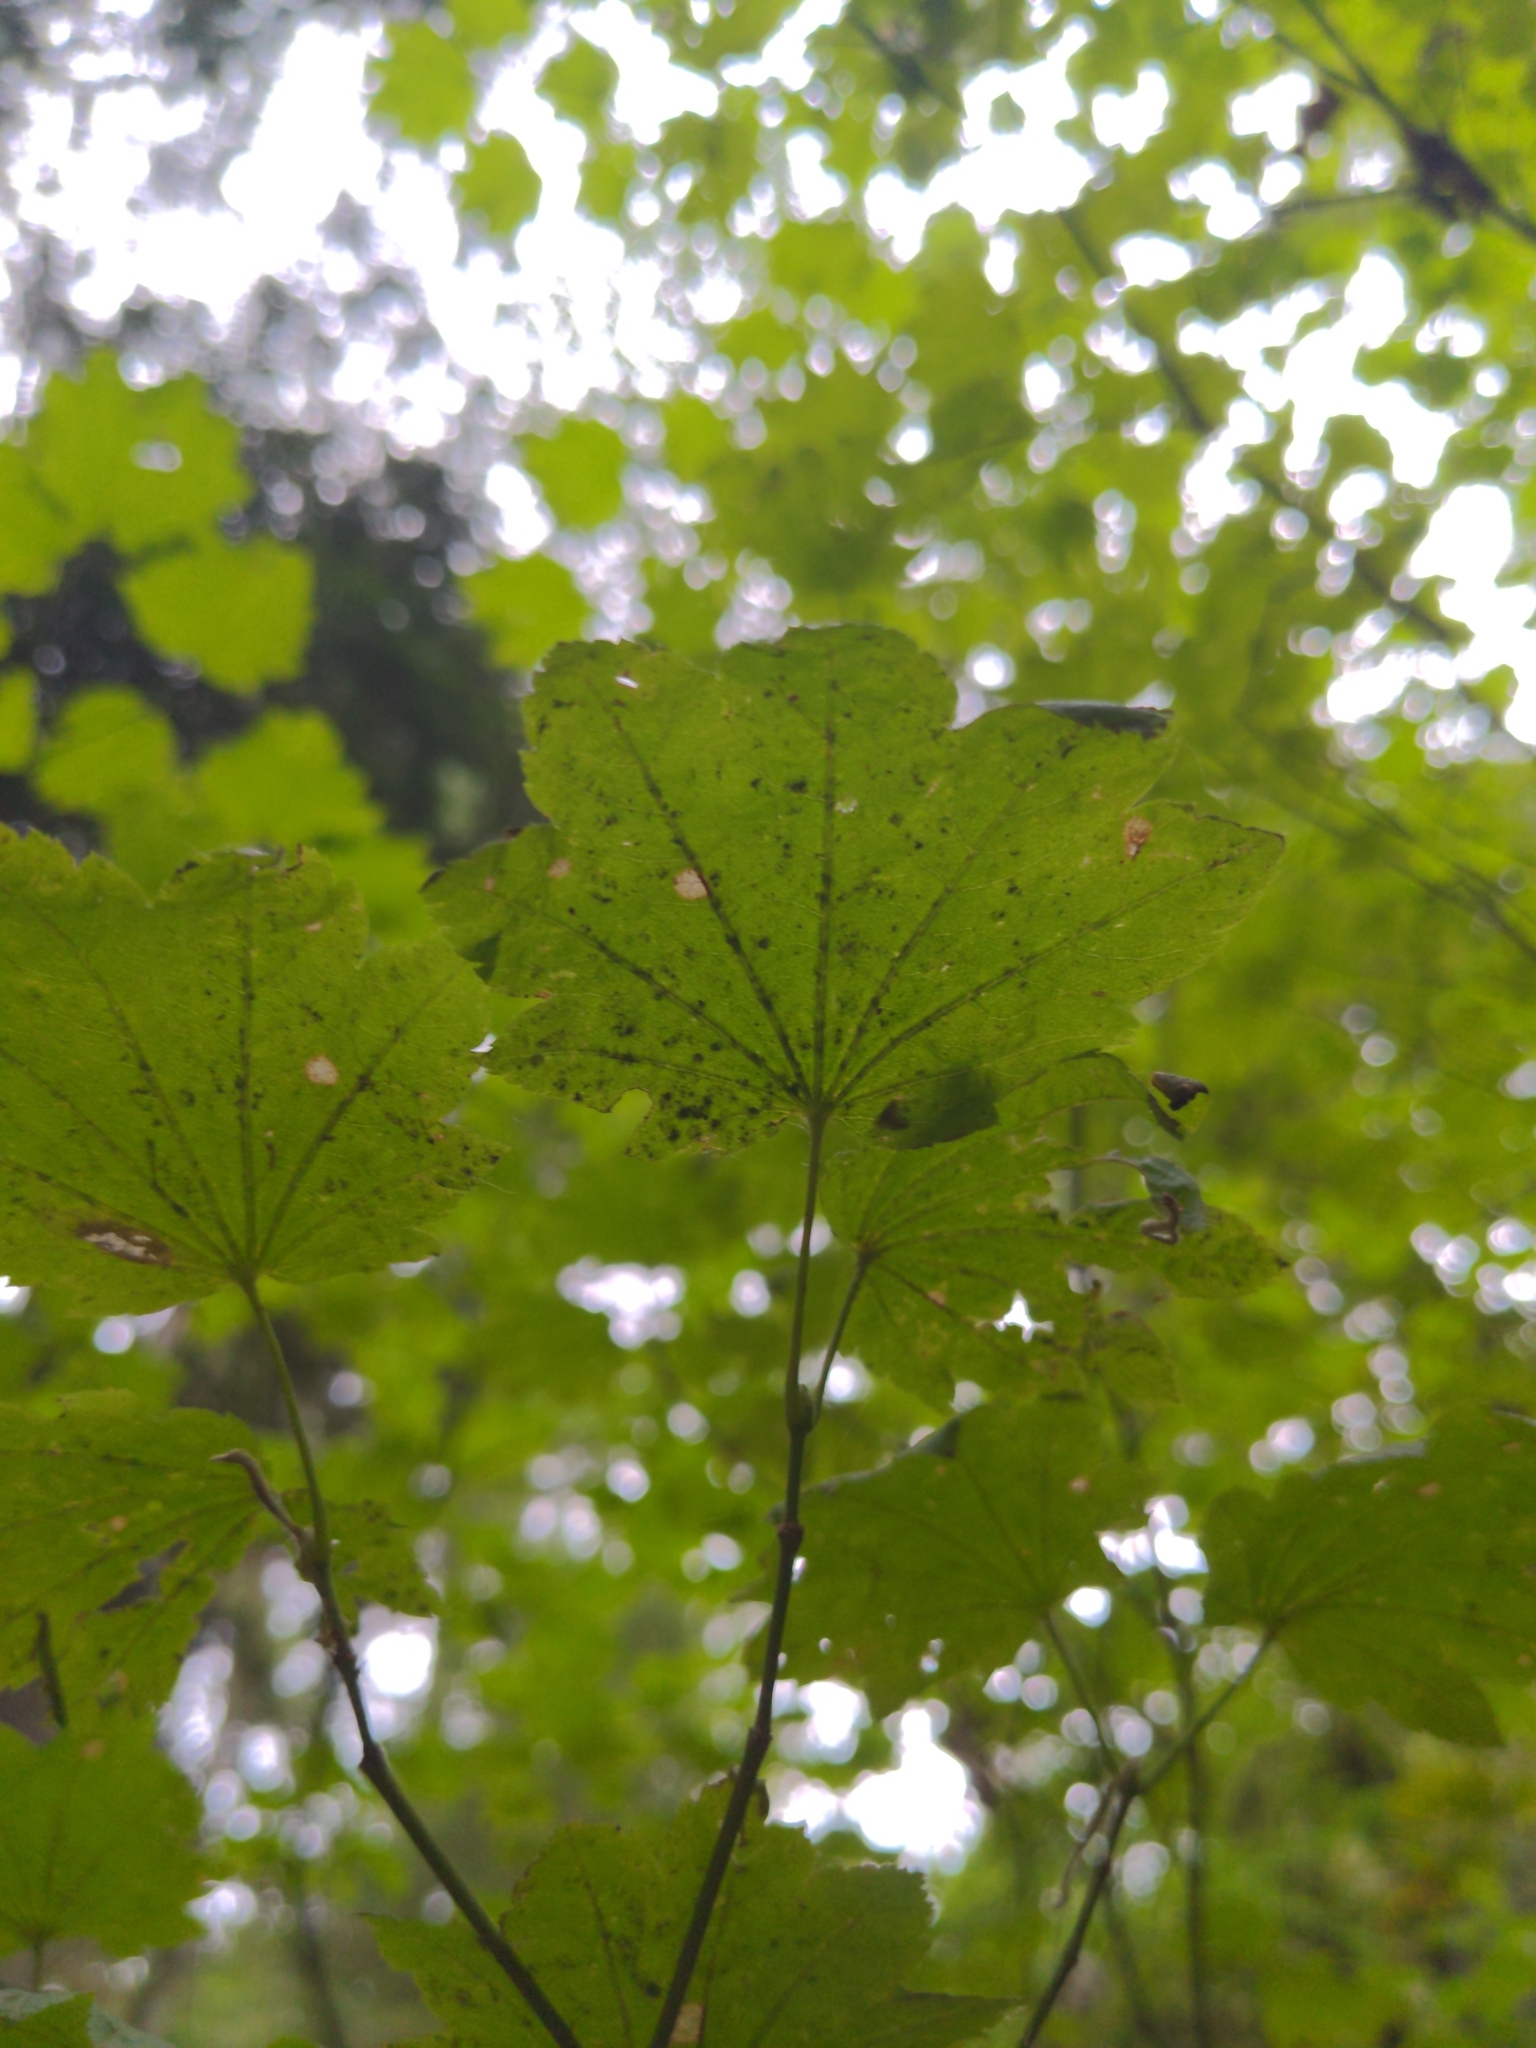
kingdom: Plantae
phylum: Tracheophyta
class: Magnoliopsida
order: Sapindales
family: Sapindaceae
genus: Acer
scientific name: Acer circinatum
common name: Vine maple
